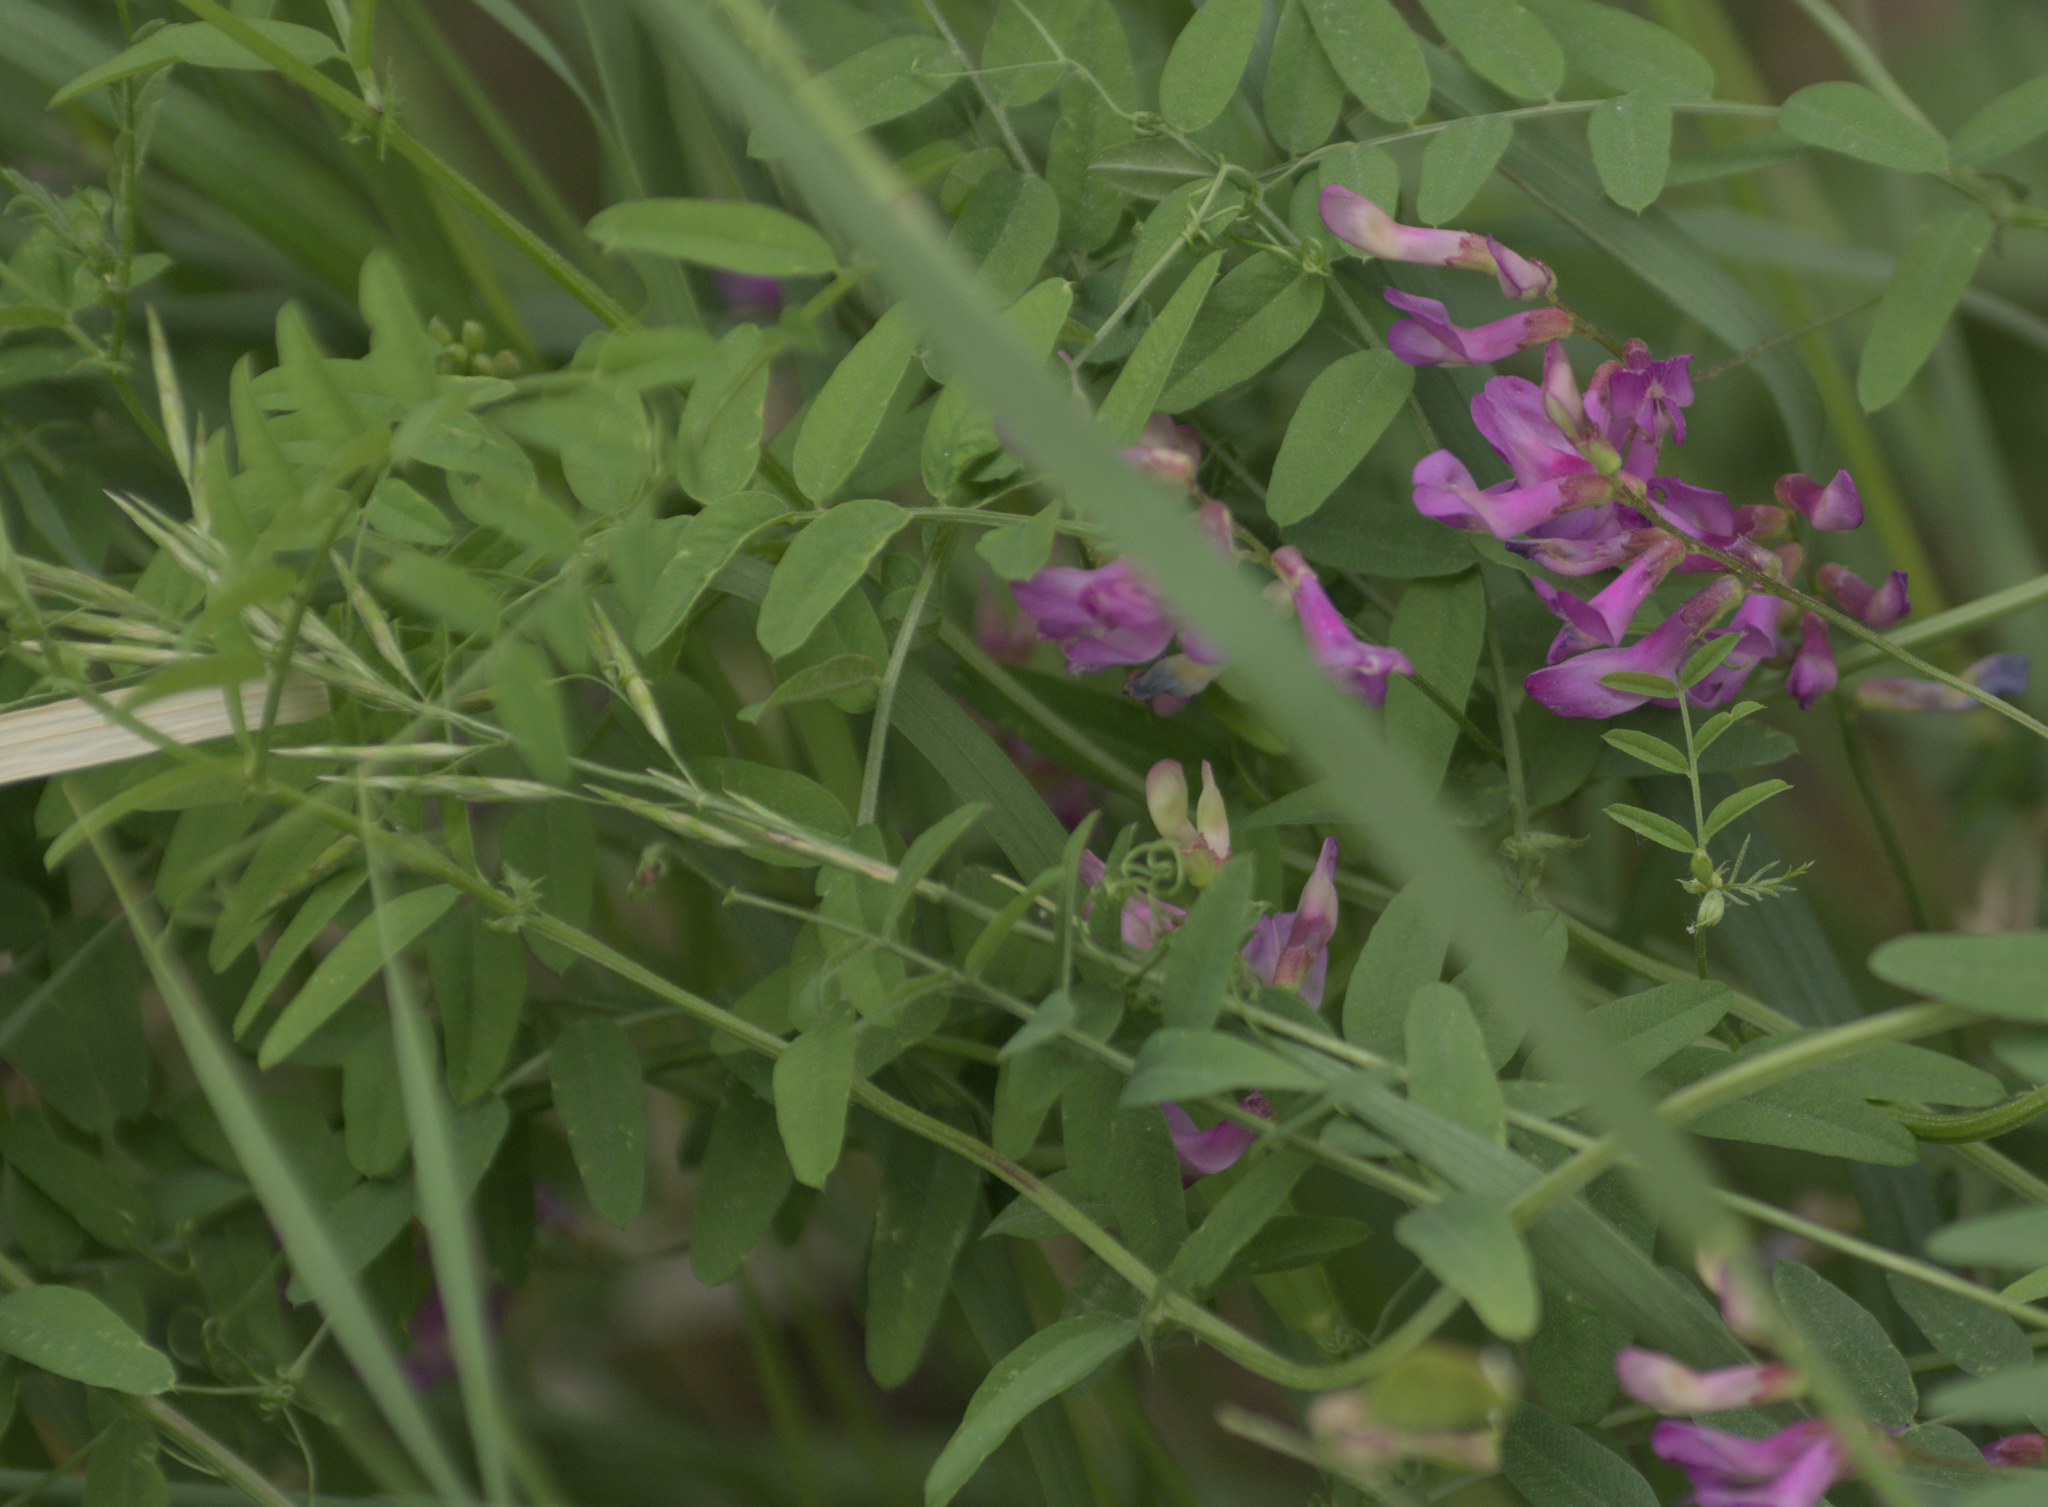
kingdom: Plantae
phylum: Tracheophyta
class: Magnoliopsida
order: Fabales
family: Fabaceae
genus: Vicia
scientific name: Vicia americana
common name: American vetch
